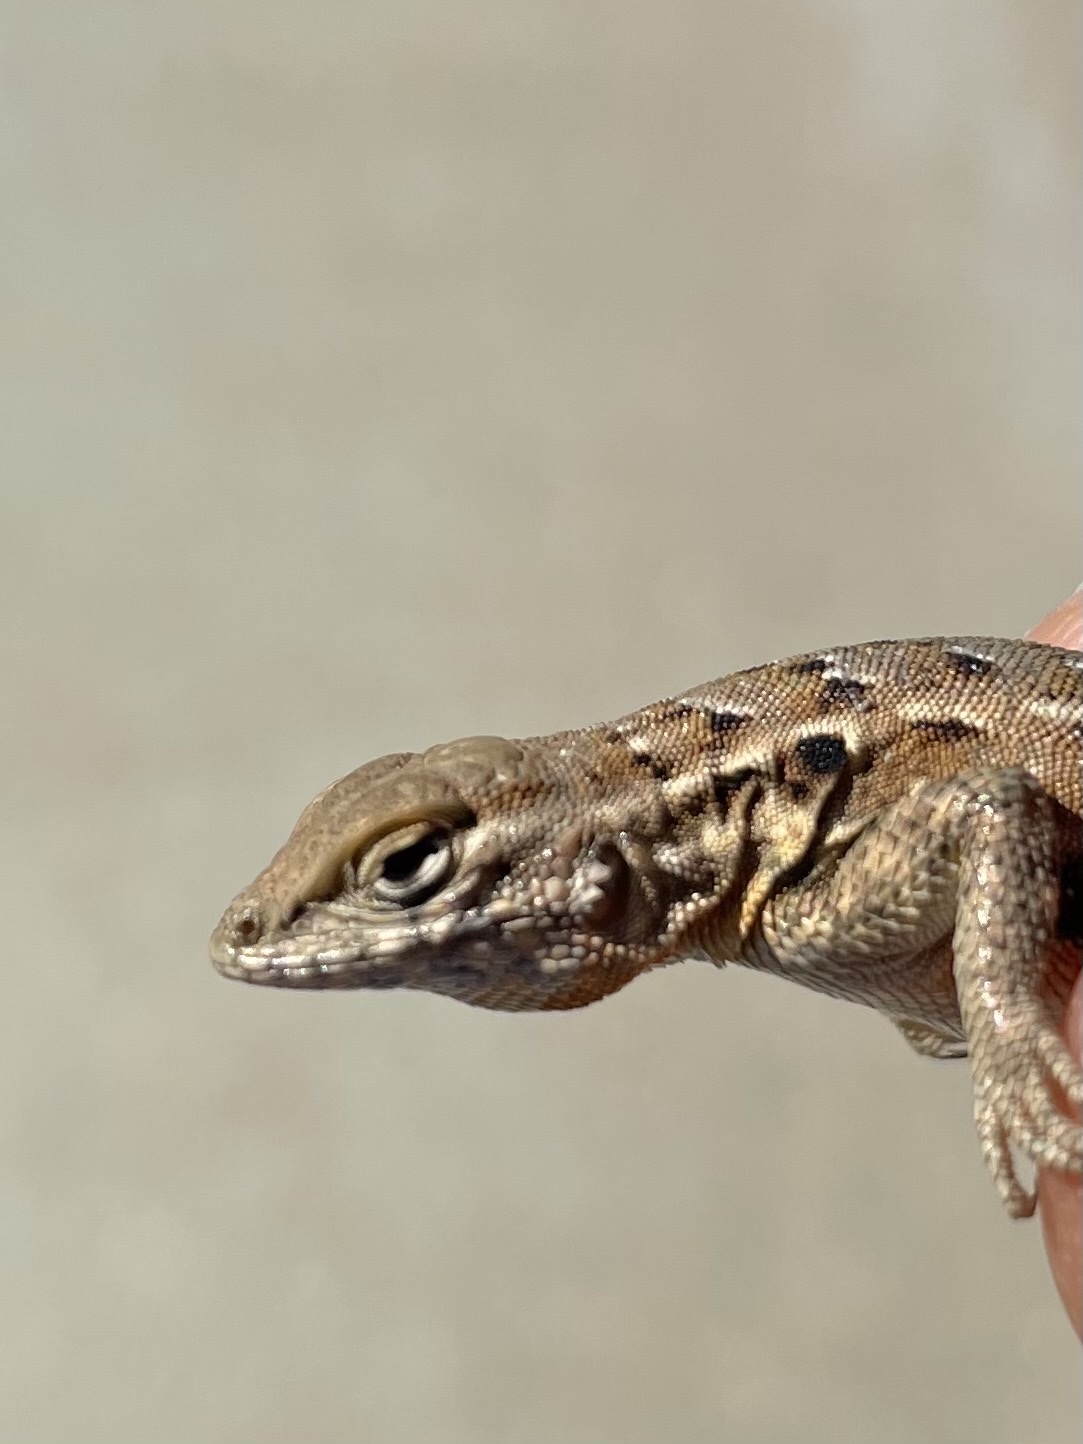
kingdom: Animalia
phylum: Chordata
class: Squamata
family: Phrynosomatidae
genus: Uta
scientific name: Uta stansburiana
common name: Side-blotched lizard
